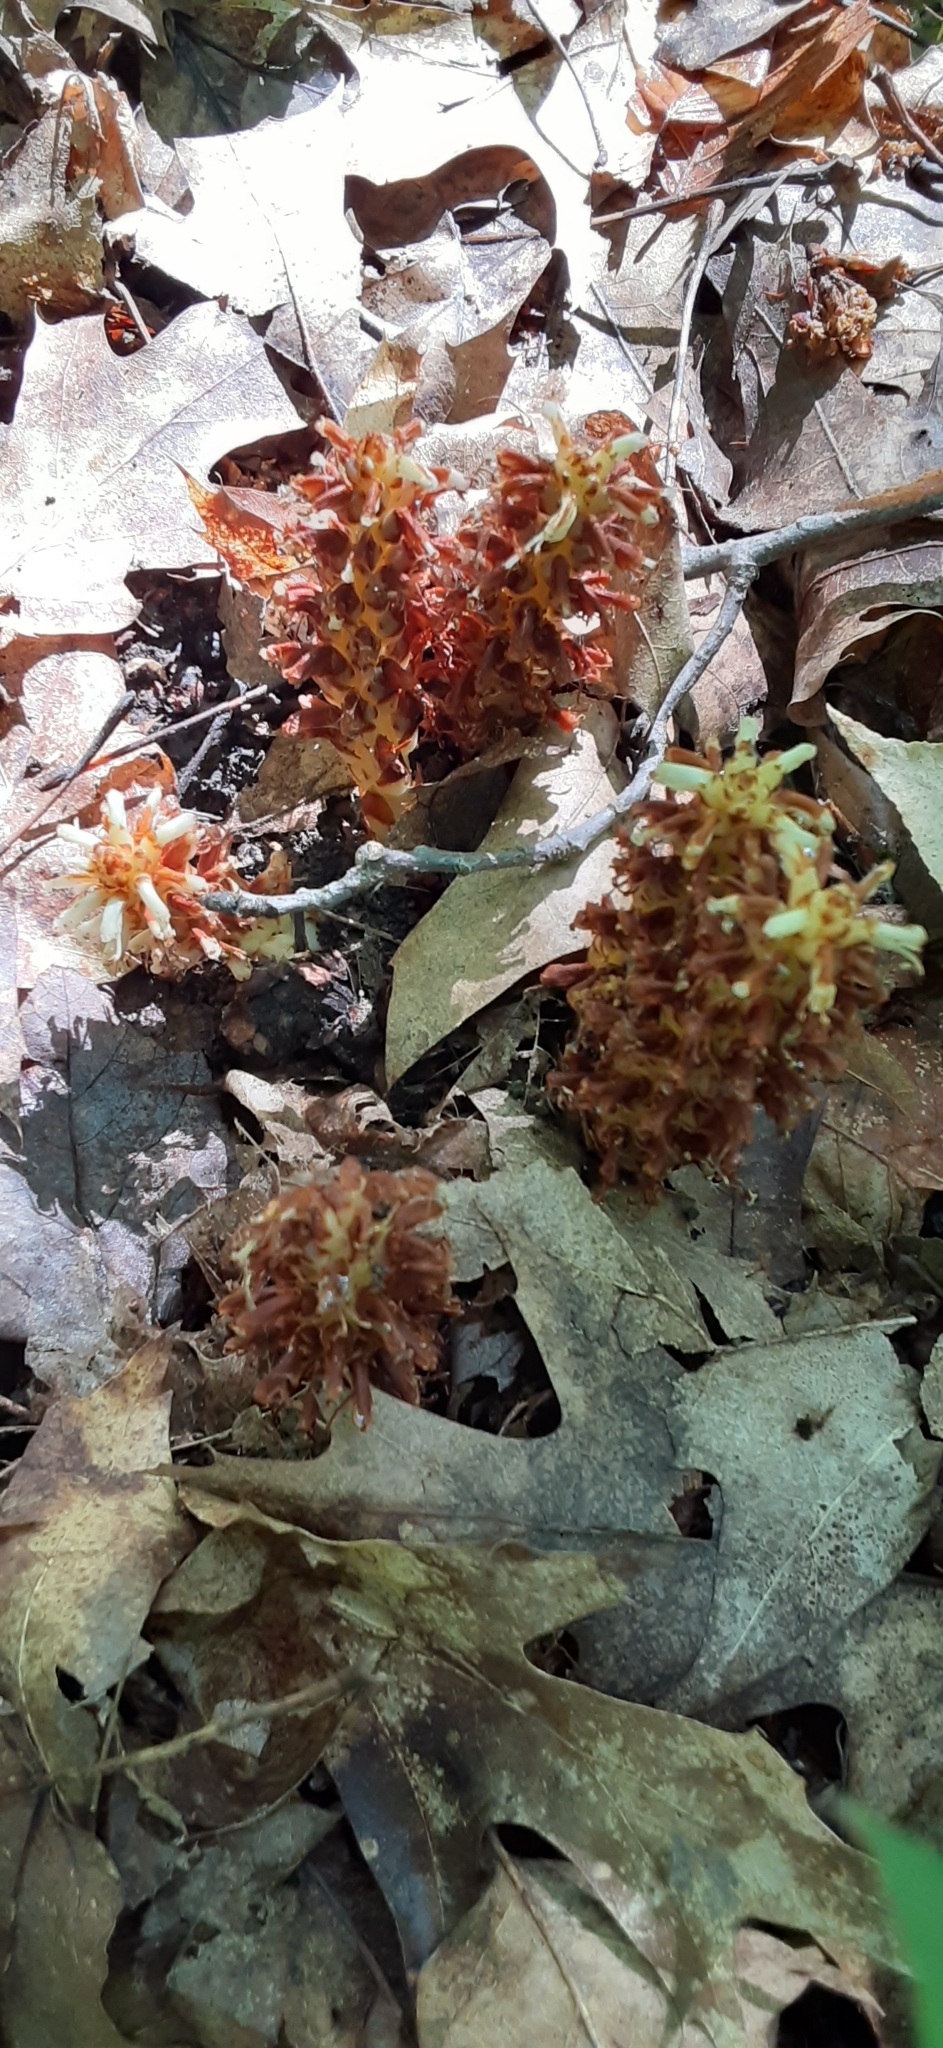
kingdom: Plantae
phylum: Tracheophyta
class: Magnoliopsida
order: Lamiales
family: Orobanchaceae
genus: Conopholis
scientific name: Conopholis americana
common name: American cancer-root
